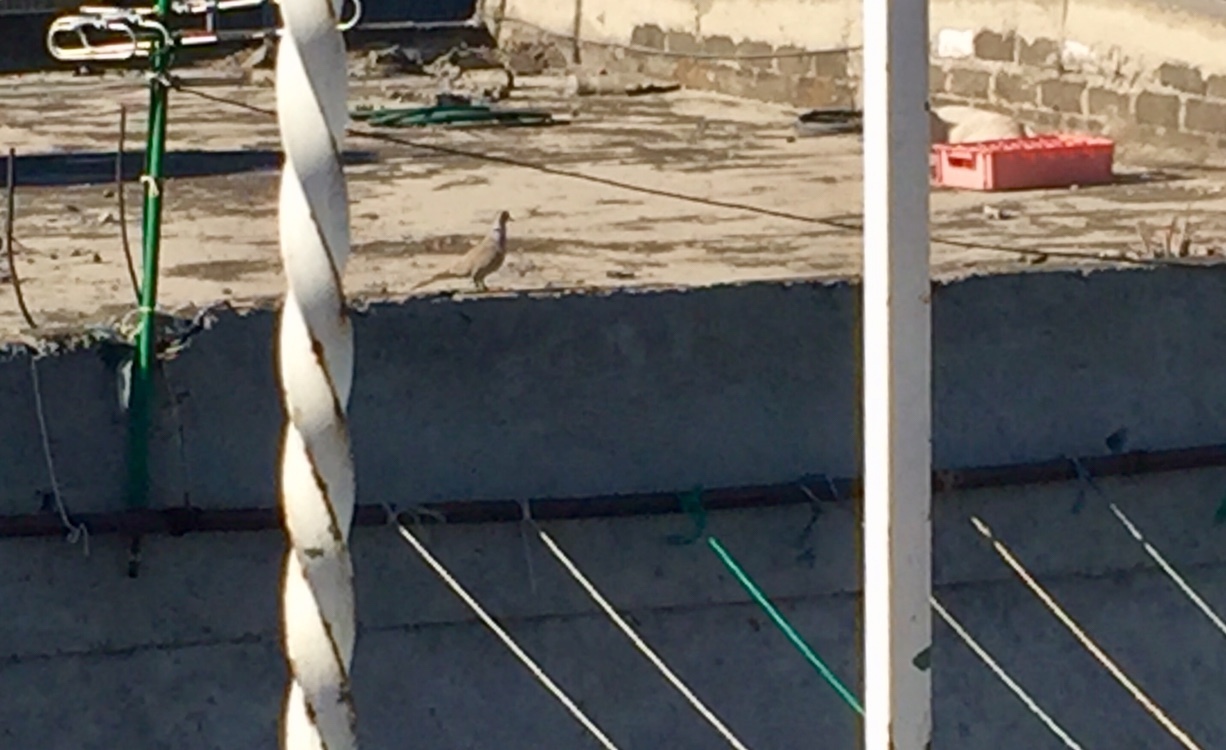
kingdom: Animalia
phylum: Chordata
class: Aves
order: Columbiformes
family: Columbidae
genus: Streptopelia
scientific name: Streptopelia decaocto
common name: Eurasian collared dove
